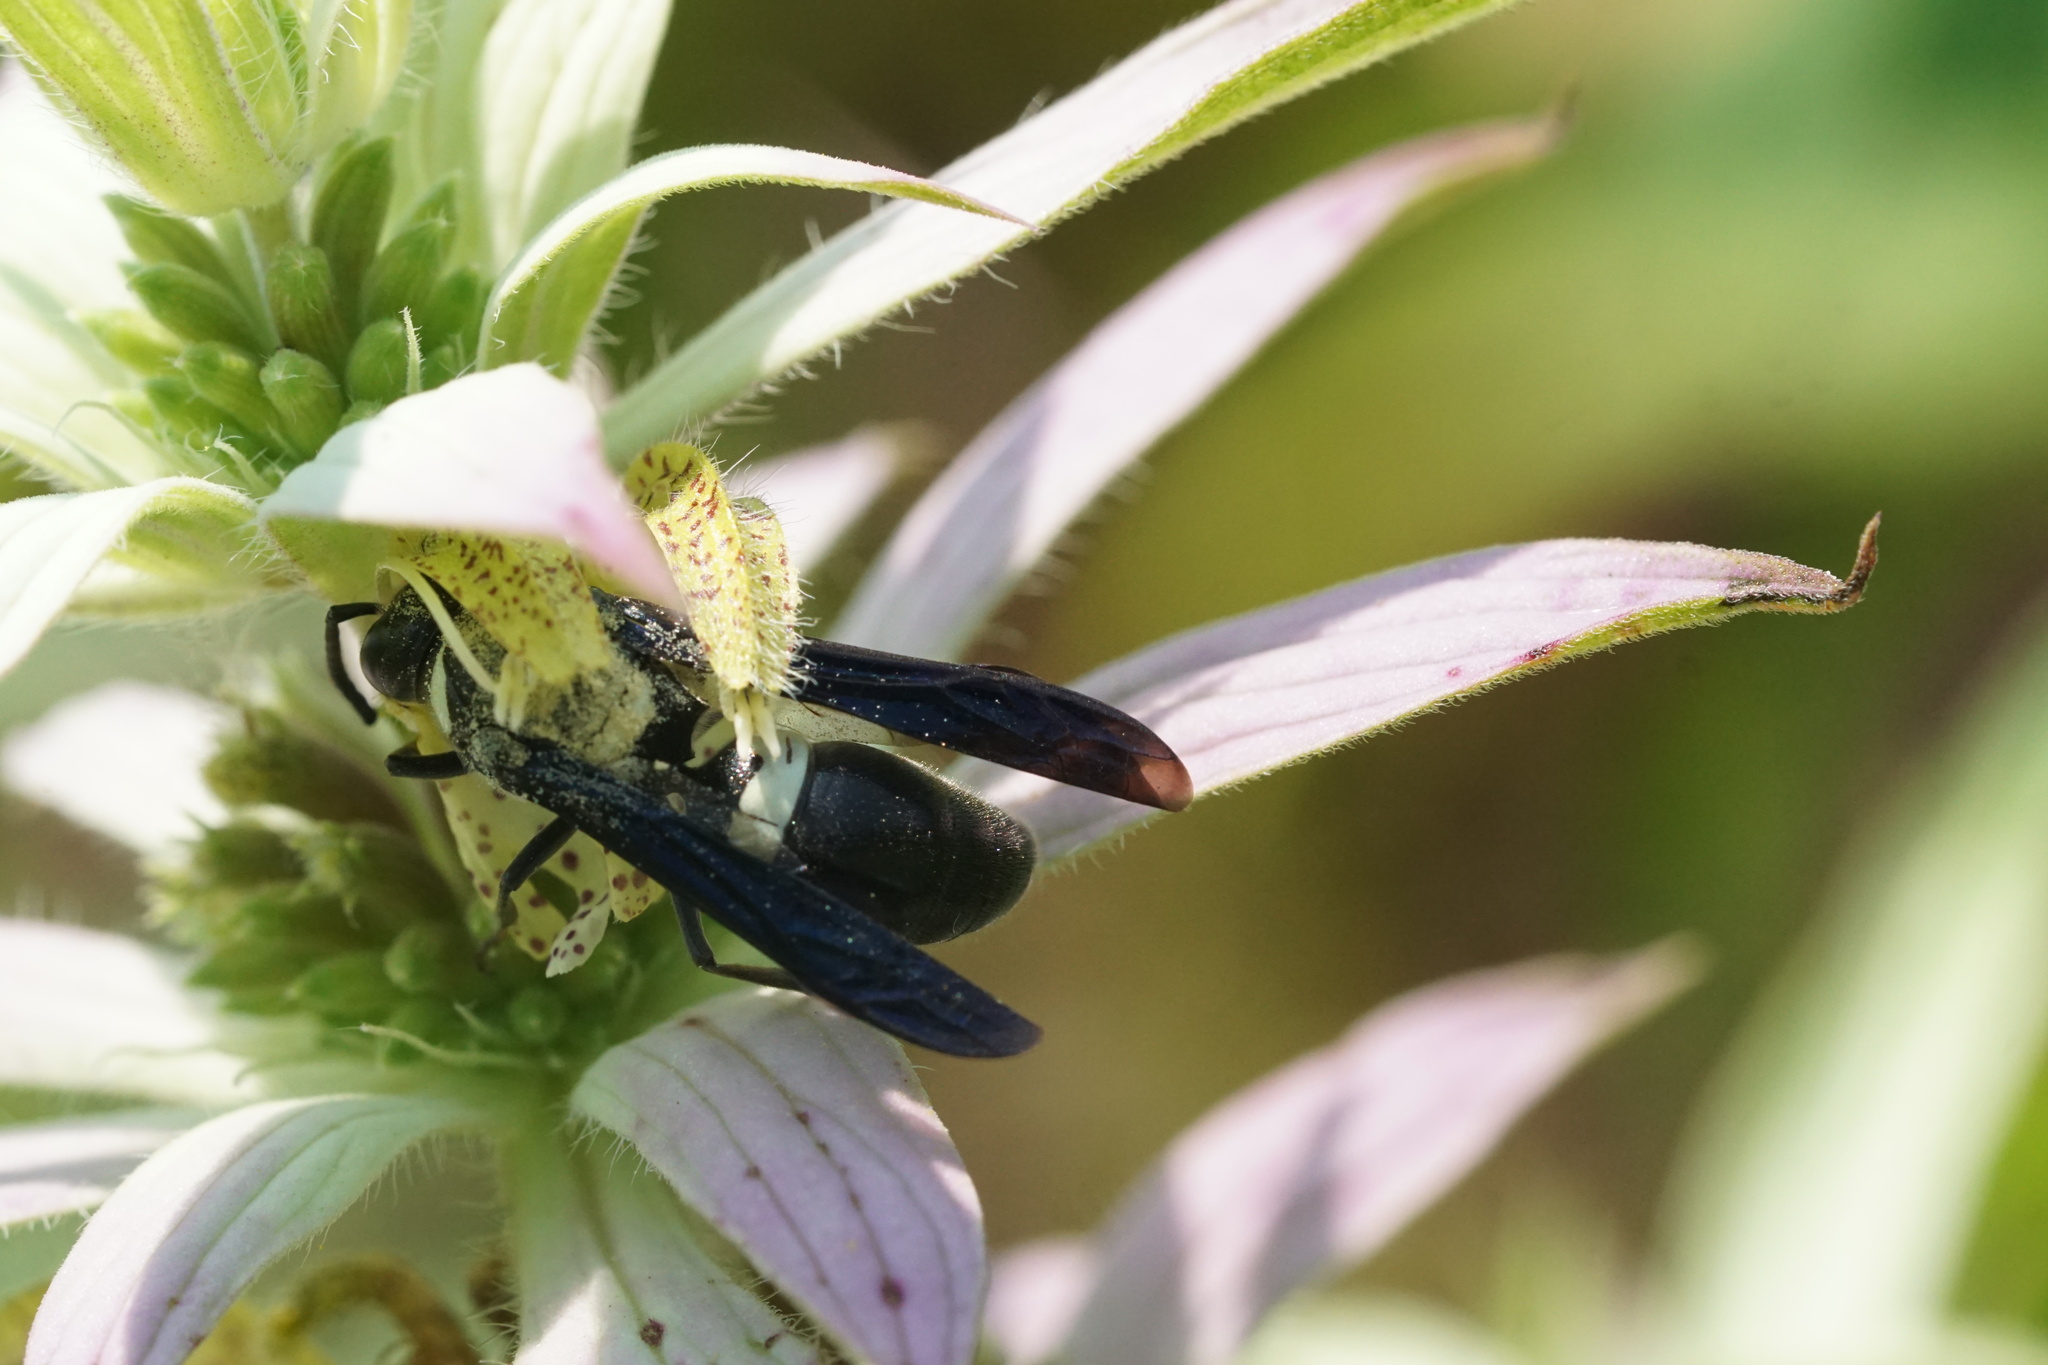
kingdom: Animalia
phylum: Arthropoda
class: Insecta
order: Hymenoptera
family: Eumenidae
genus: Monobia
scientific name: Monobia quadridens
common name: Four-toothed mason wasp
